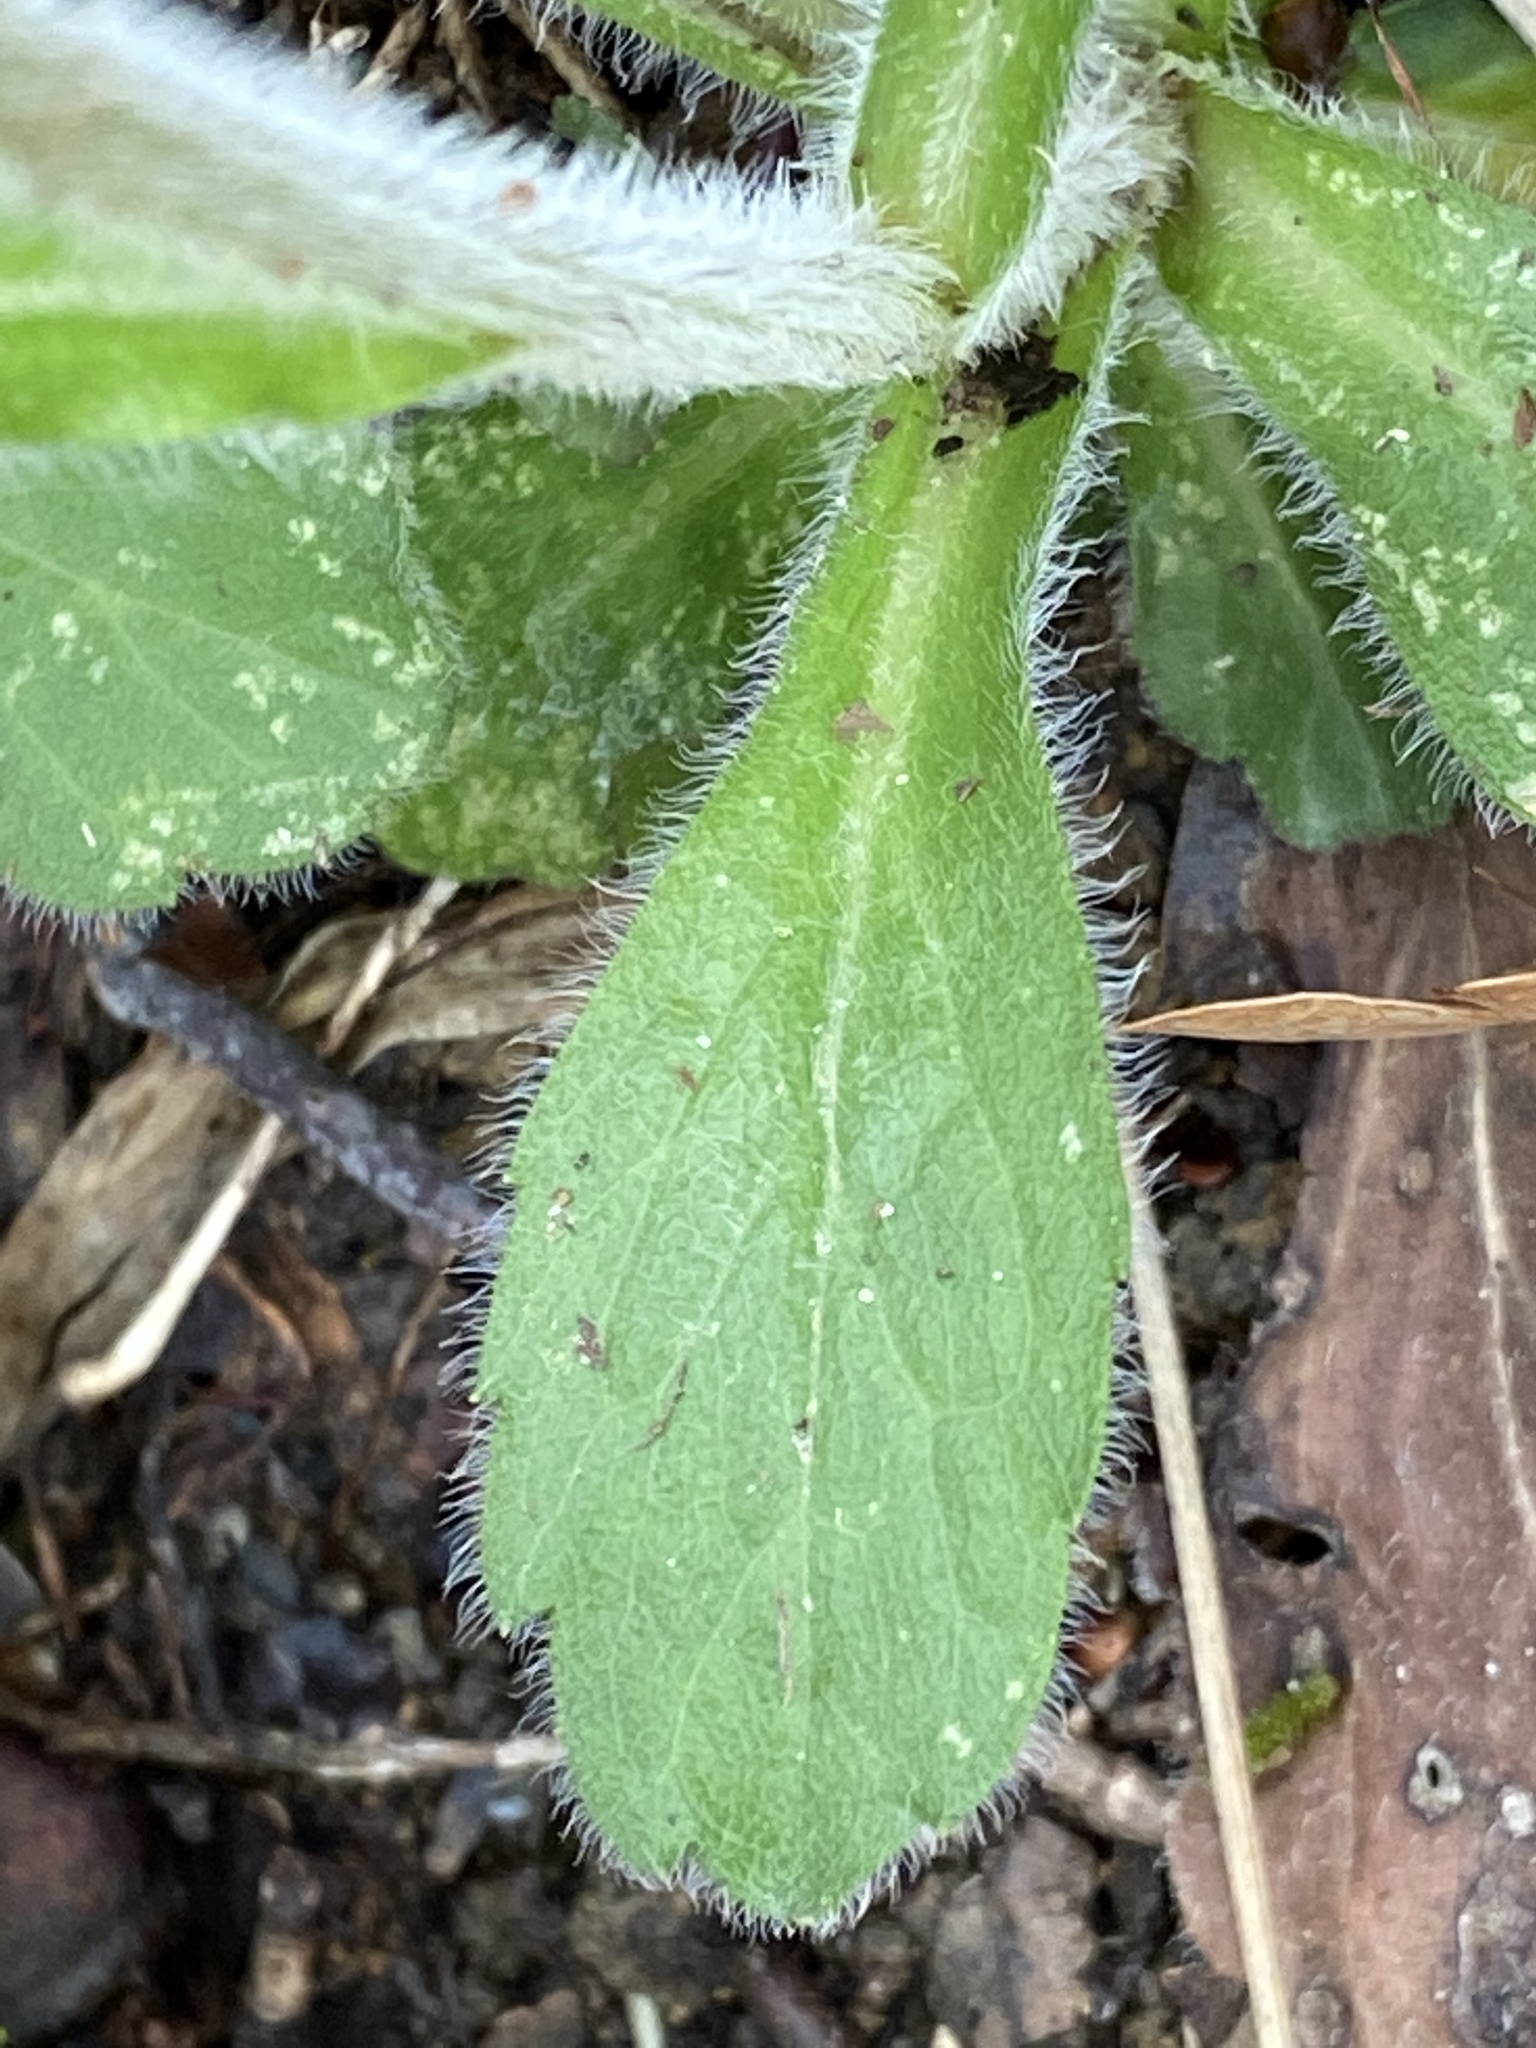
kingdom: Plantae
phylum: Tracheophyta
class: Magnoliopsida
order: Asterales
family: Asteraceae
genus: Erigeron
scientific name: Erigeron pulchellus
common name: Hairy fleabane
